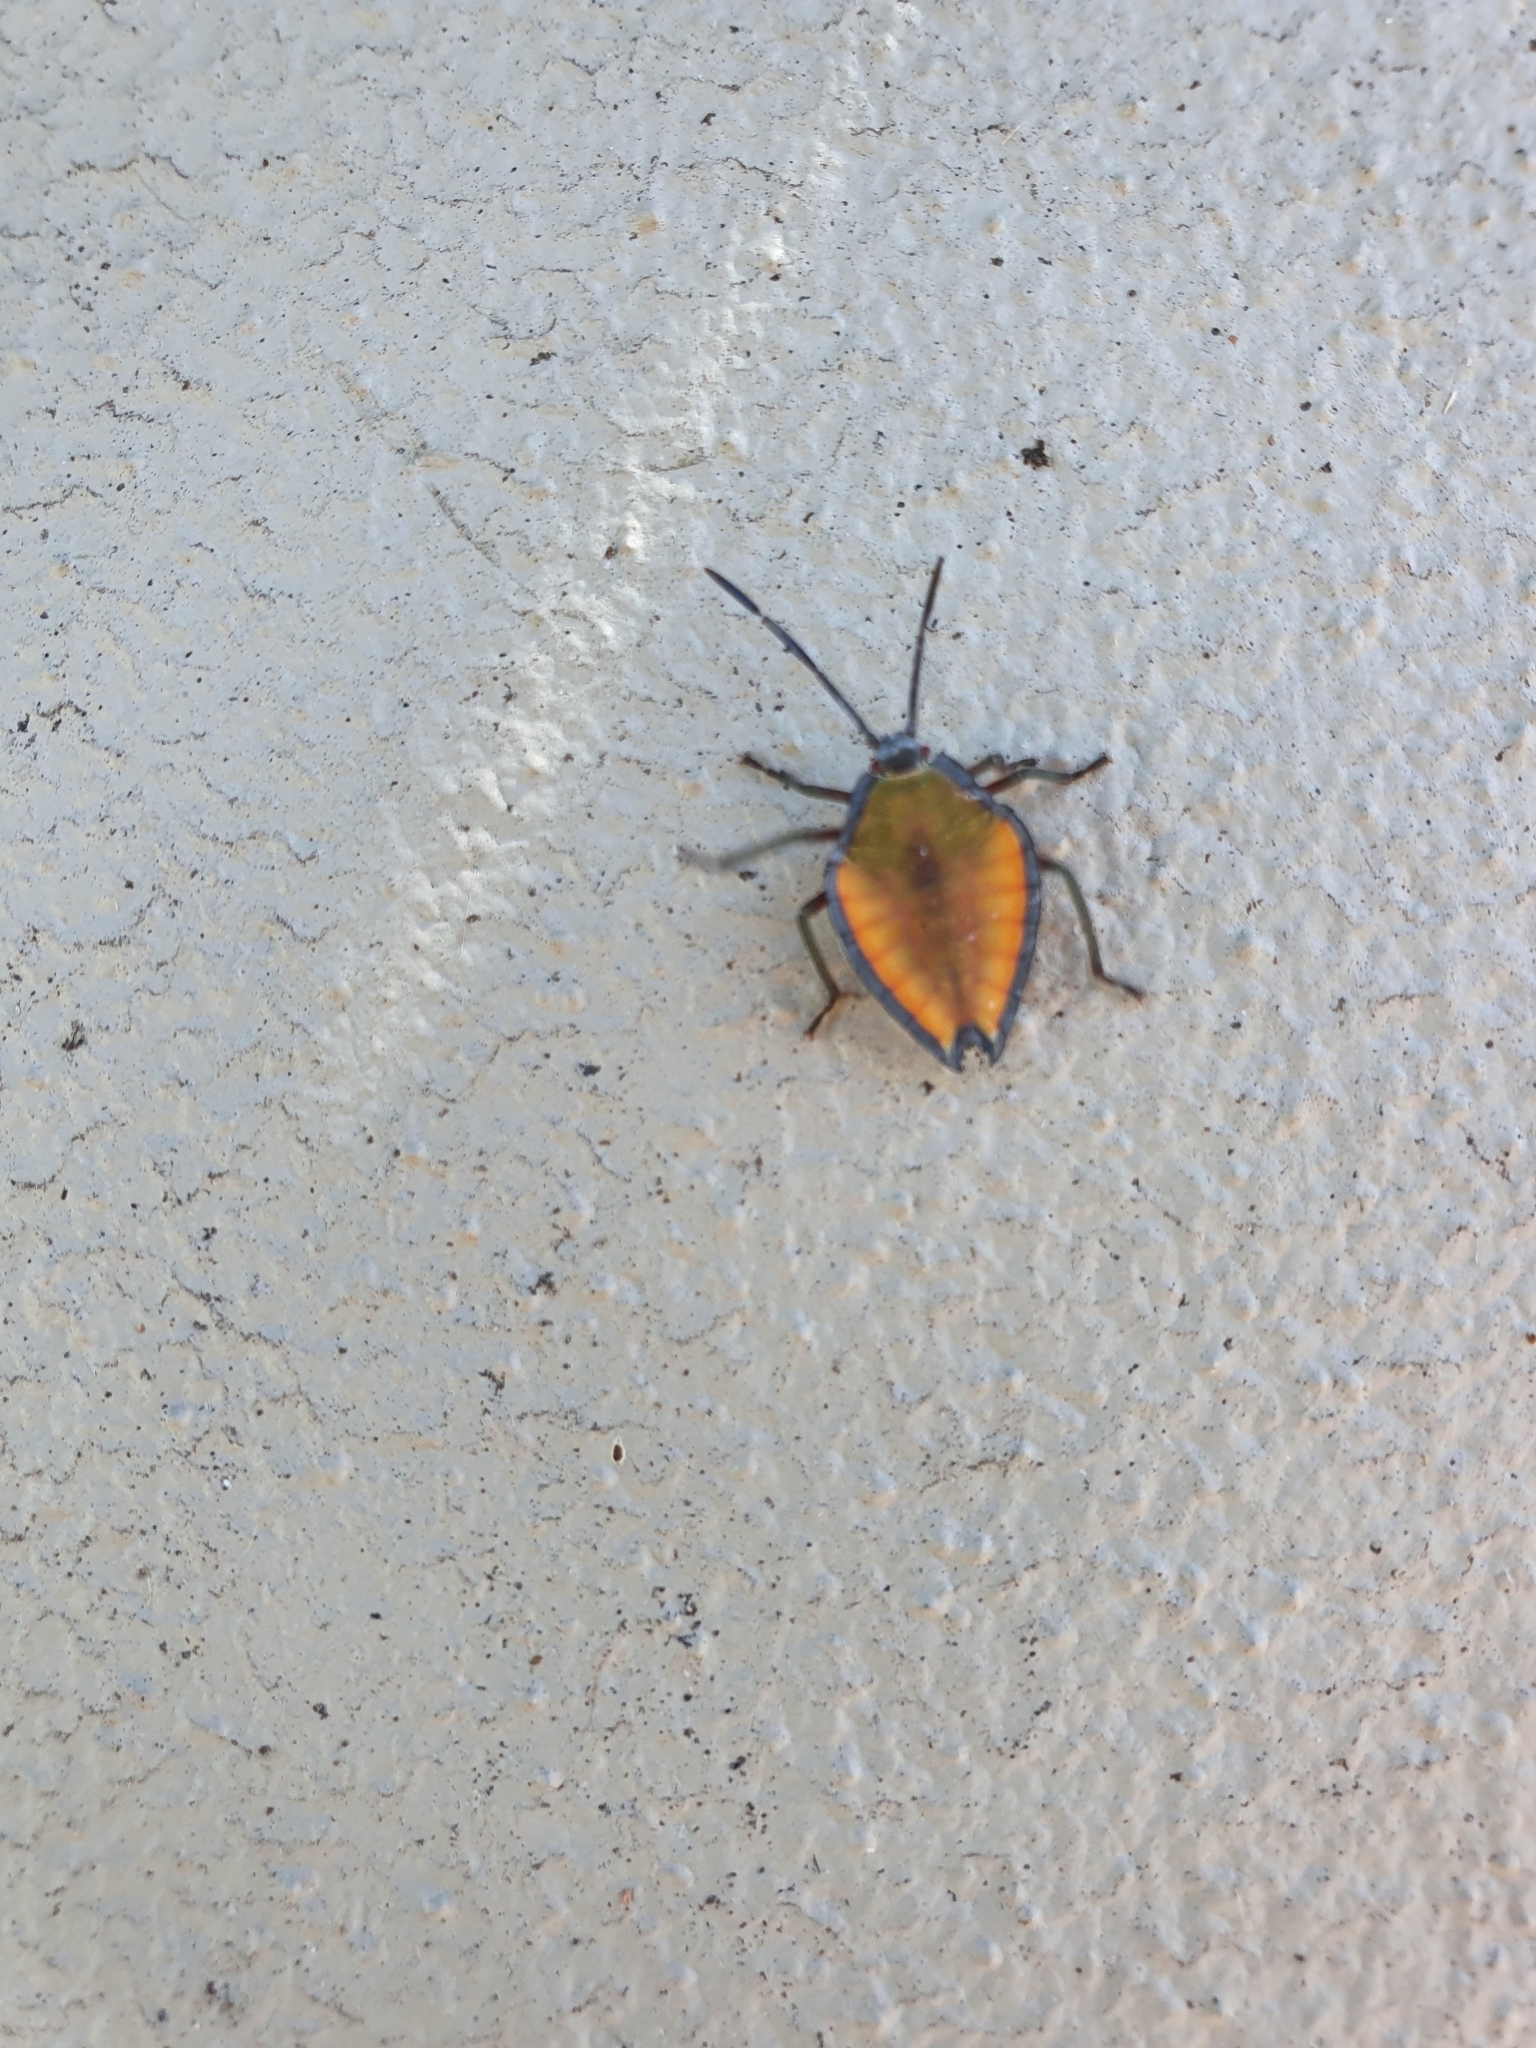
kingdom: Animalia
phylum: Arthropoda
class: Insecta
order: Hemiptera
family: Tessaratomidae
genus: Lyramorpha
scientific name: Lyramorpha rosea
